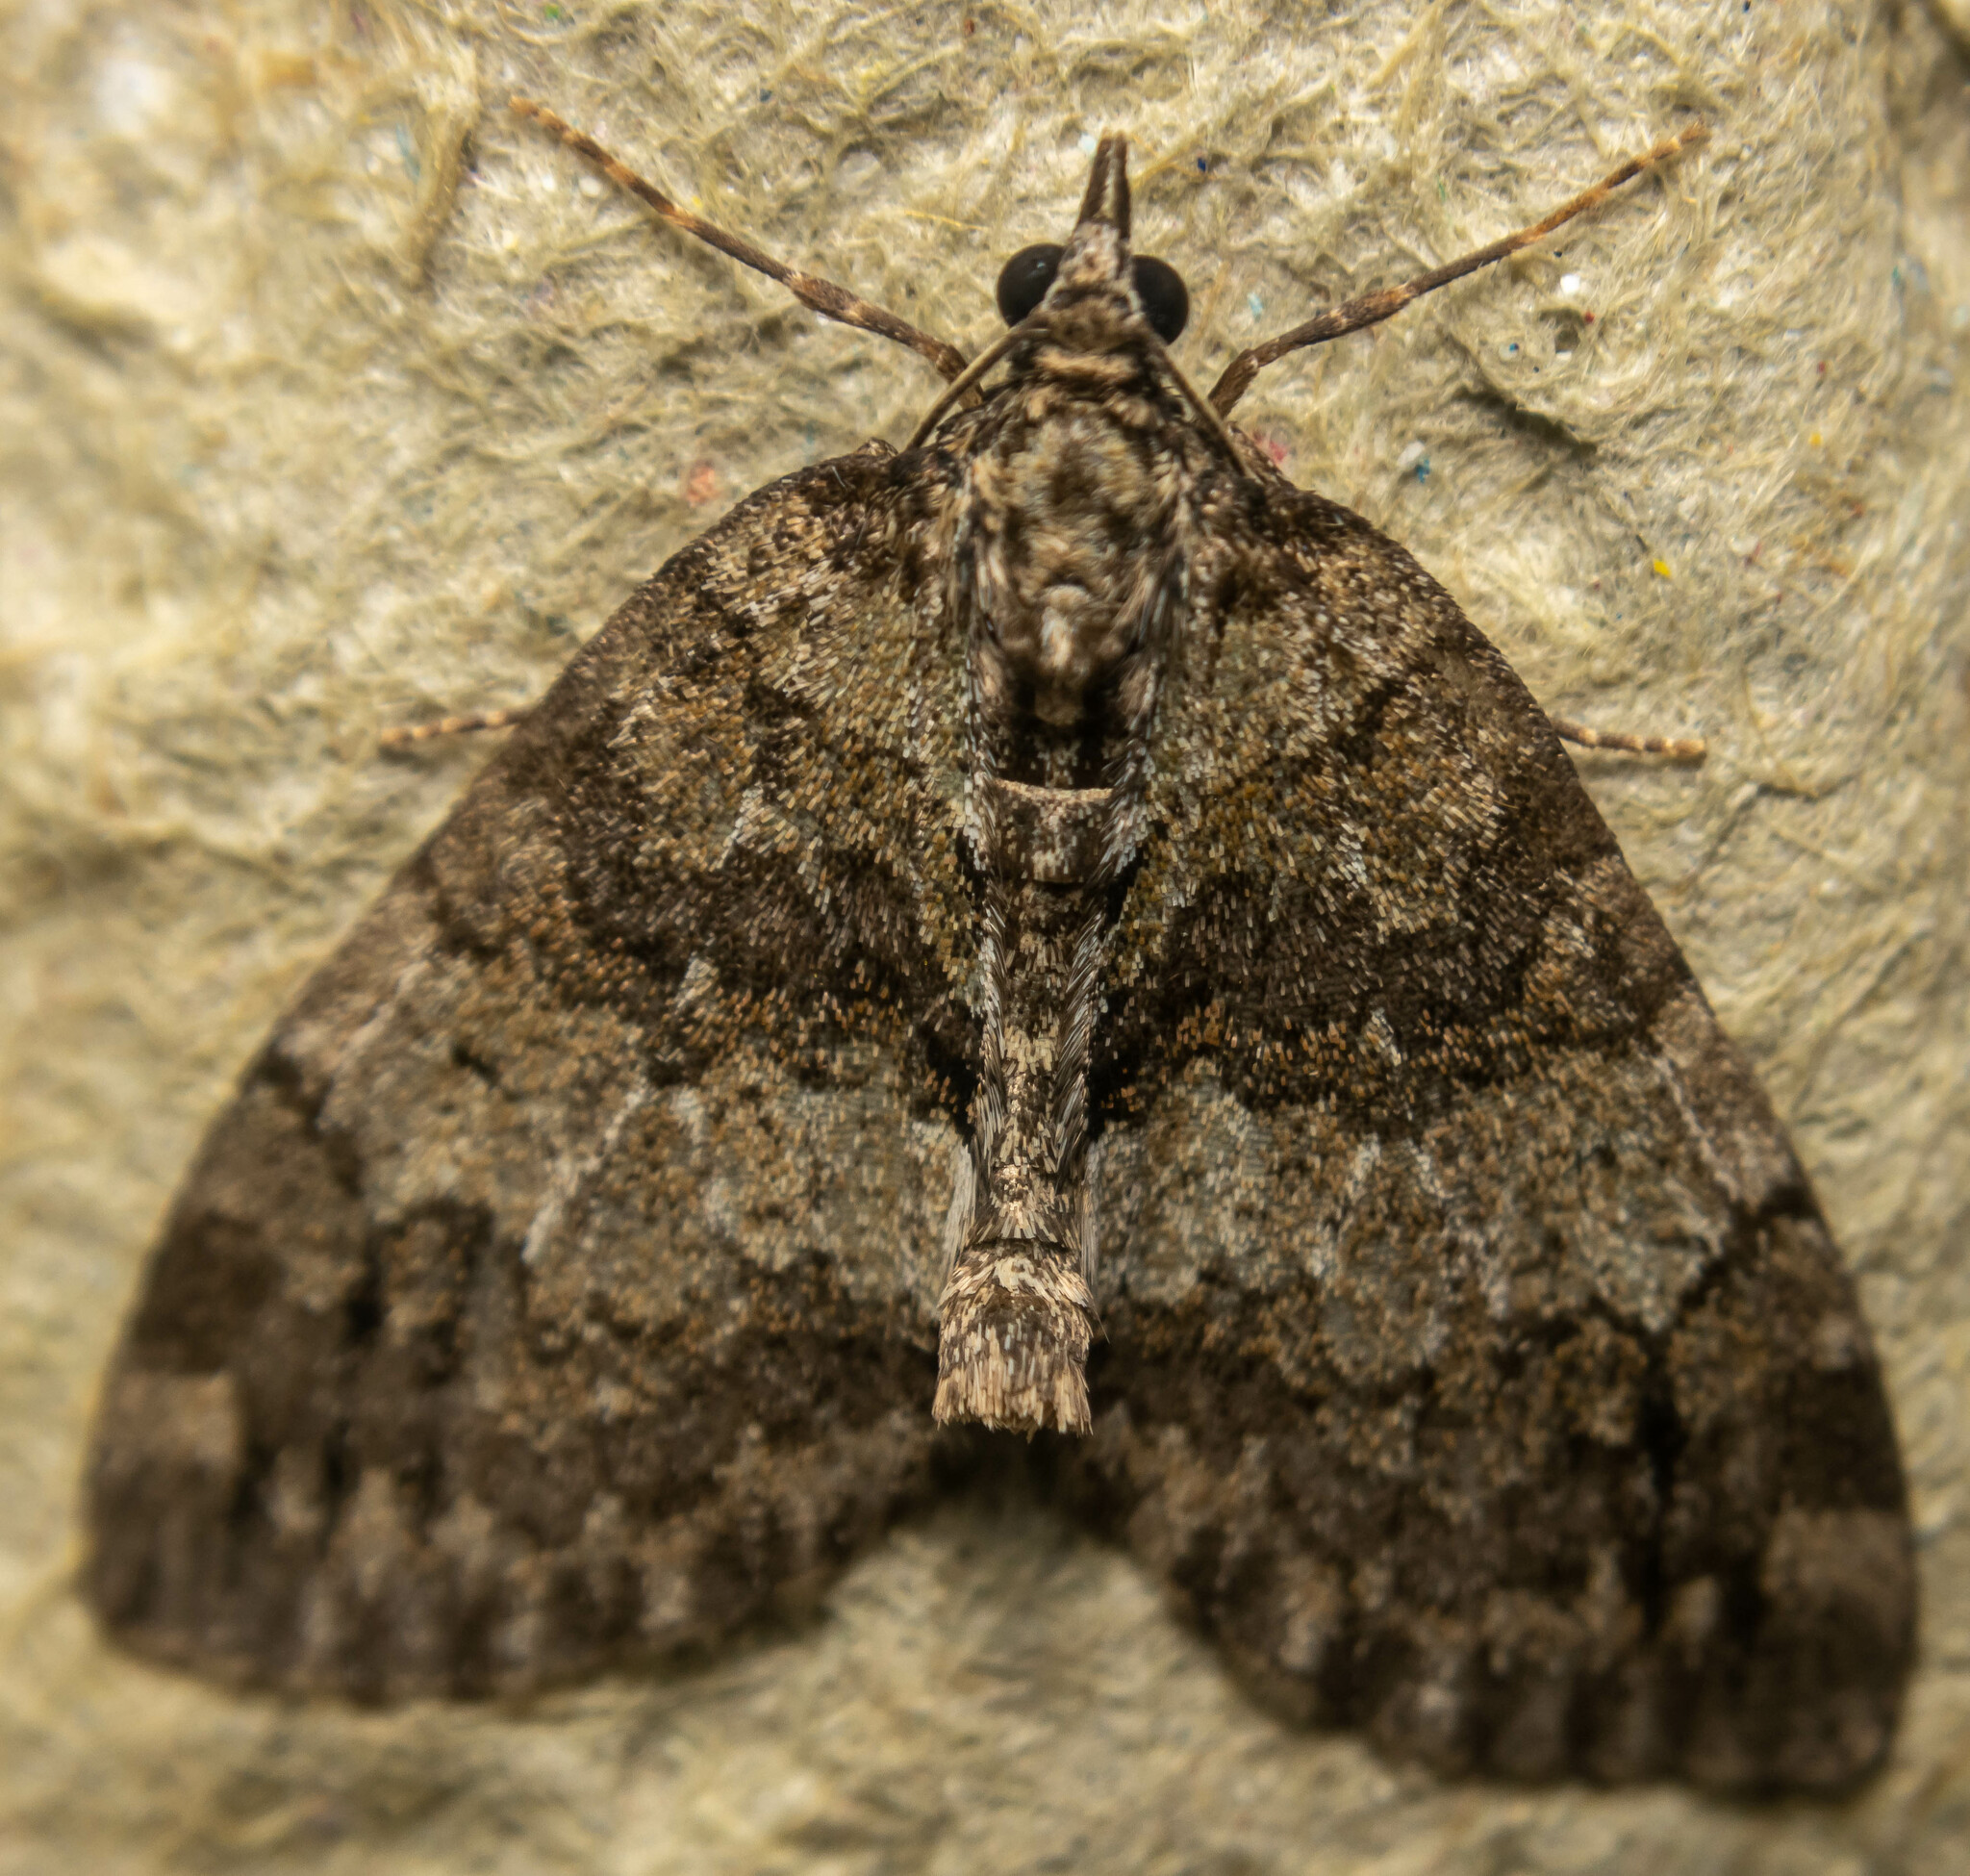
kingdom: Animalia
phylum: Arthropoda
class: Insecta
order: Lepidoptera
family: Geometridae
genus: Hydriomena
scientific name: Hydriomena impluviata
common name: May highflyer
